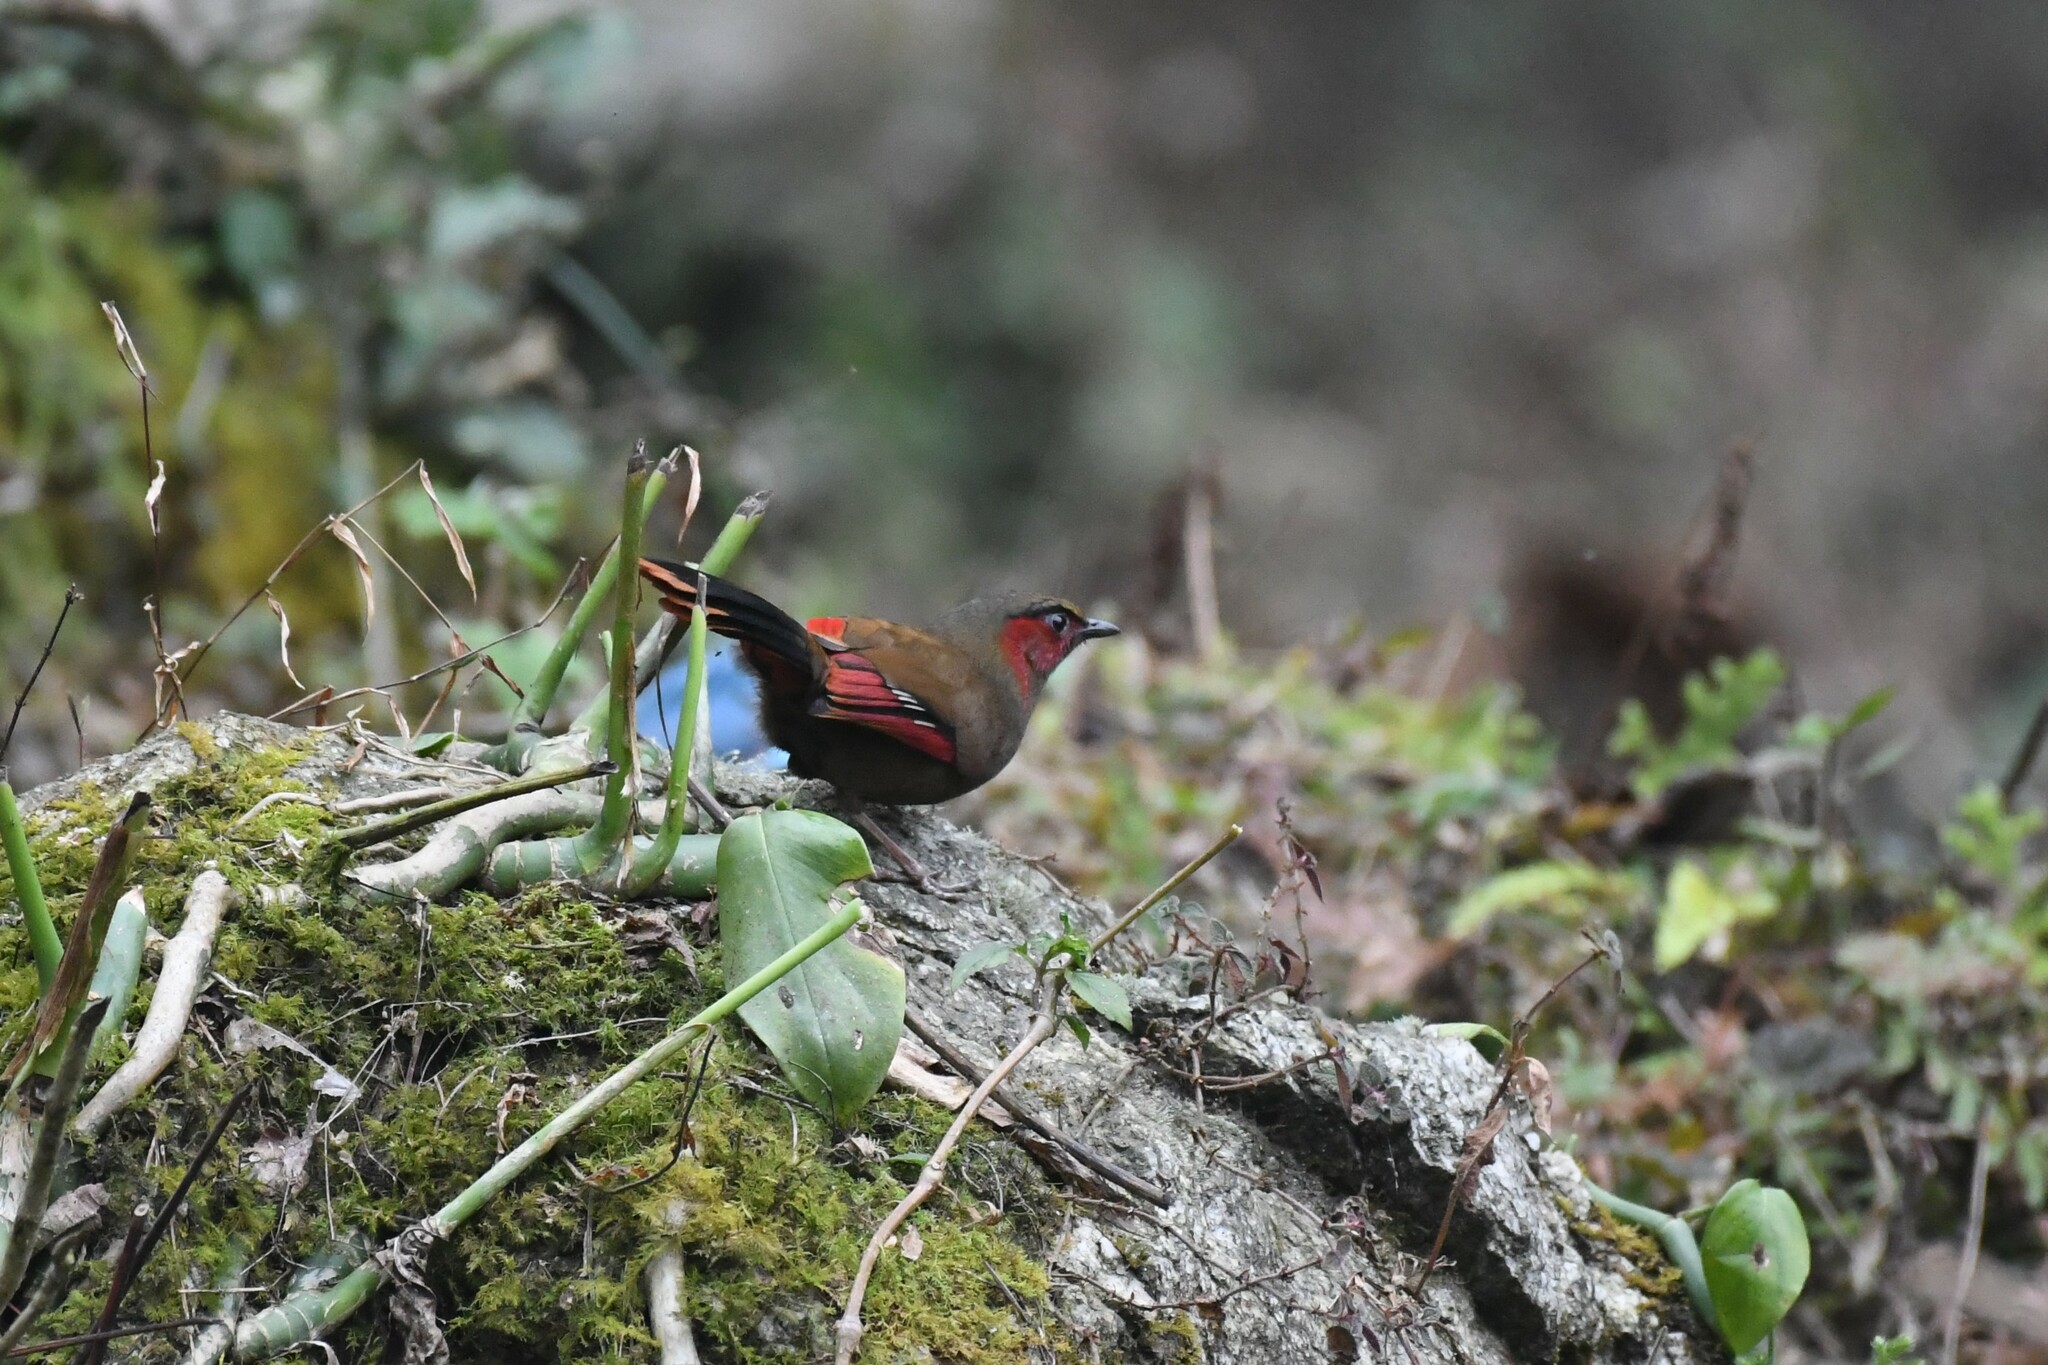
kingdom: Animalia
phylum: Chordata
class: Aves
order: Passeriformes
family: Leiothrichidae
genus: Liocichla
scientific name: Liocichla phoenicea
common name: Red-faced liocichla
